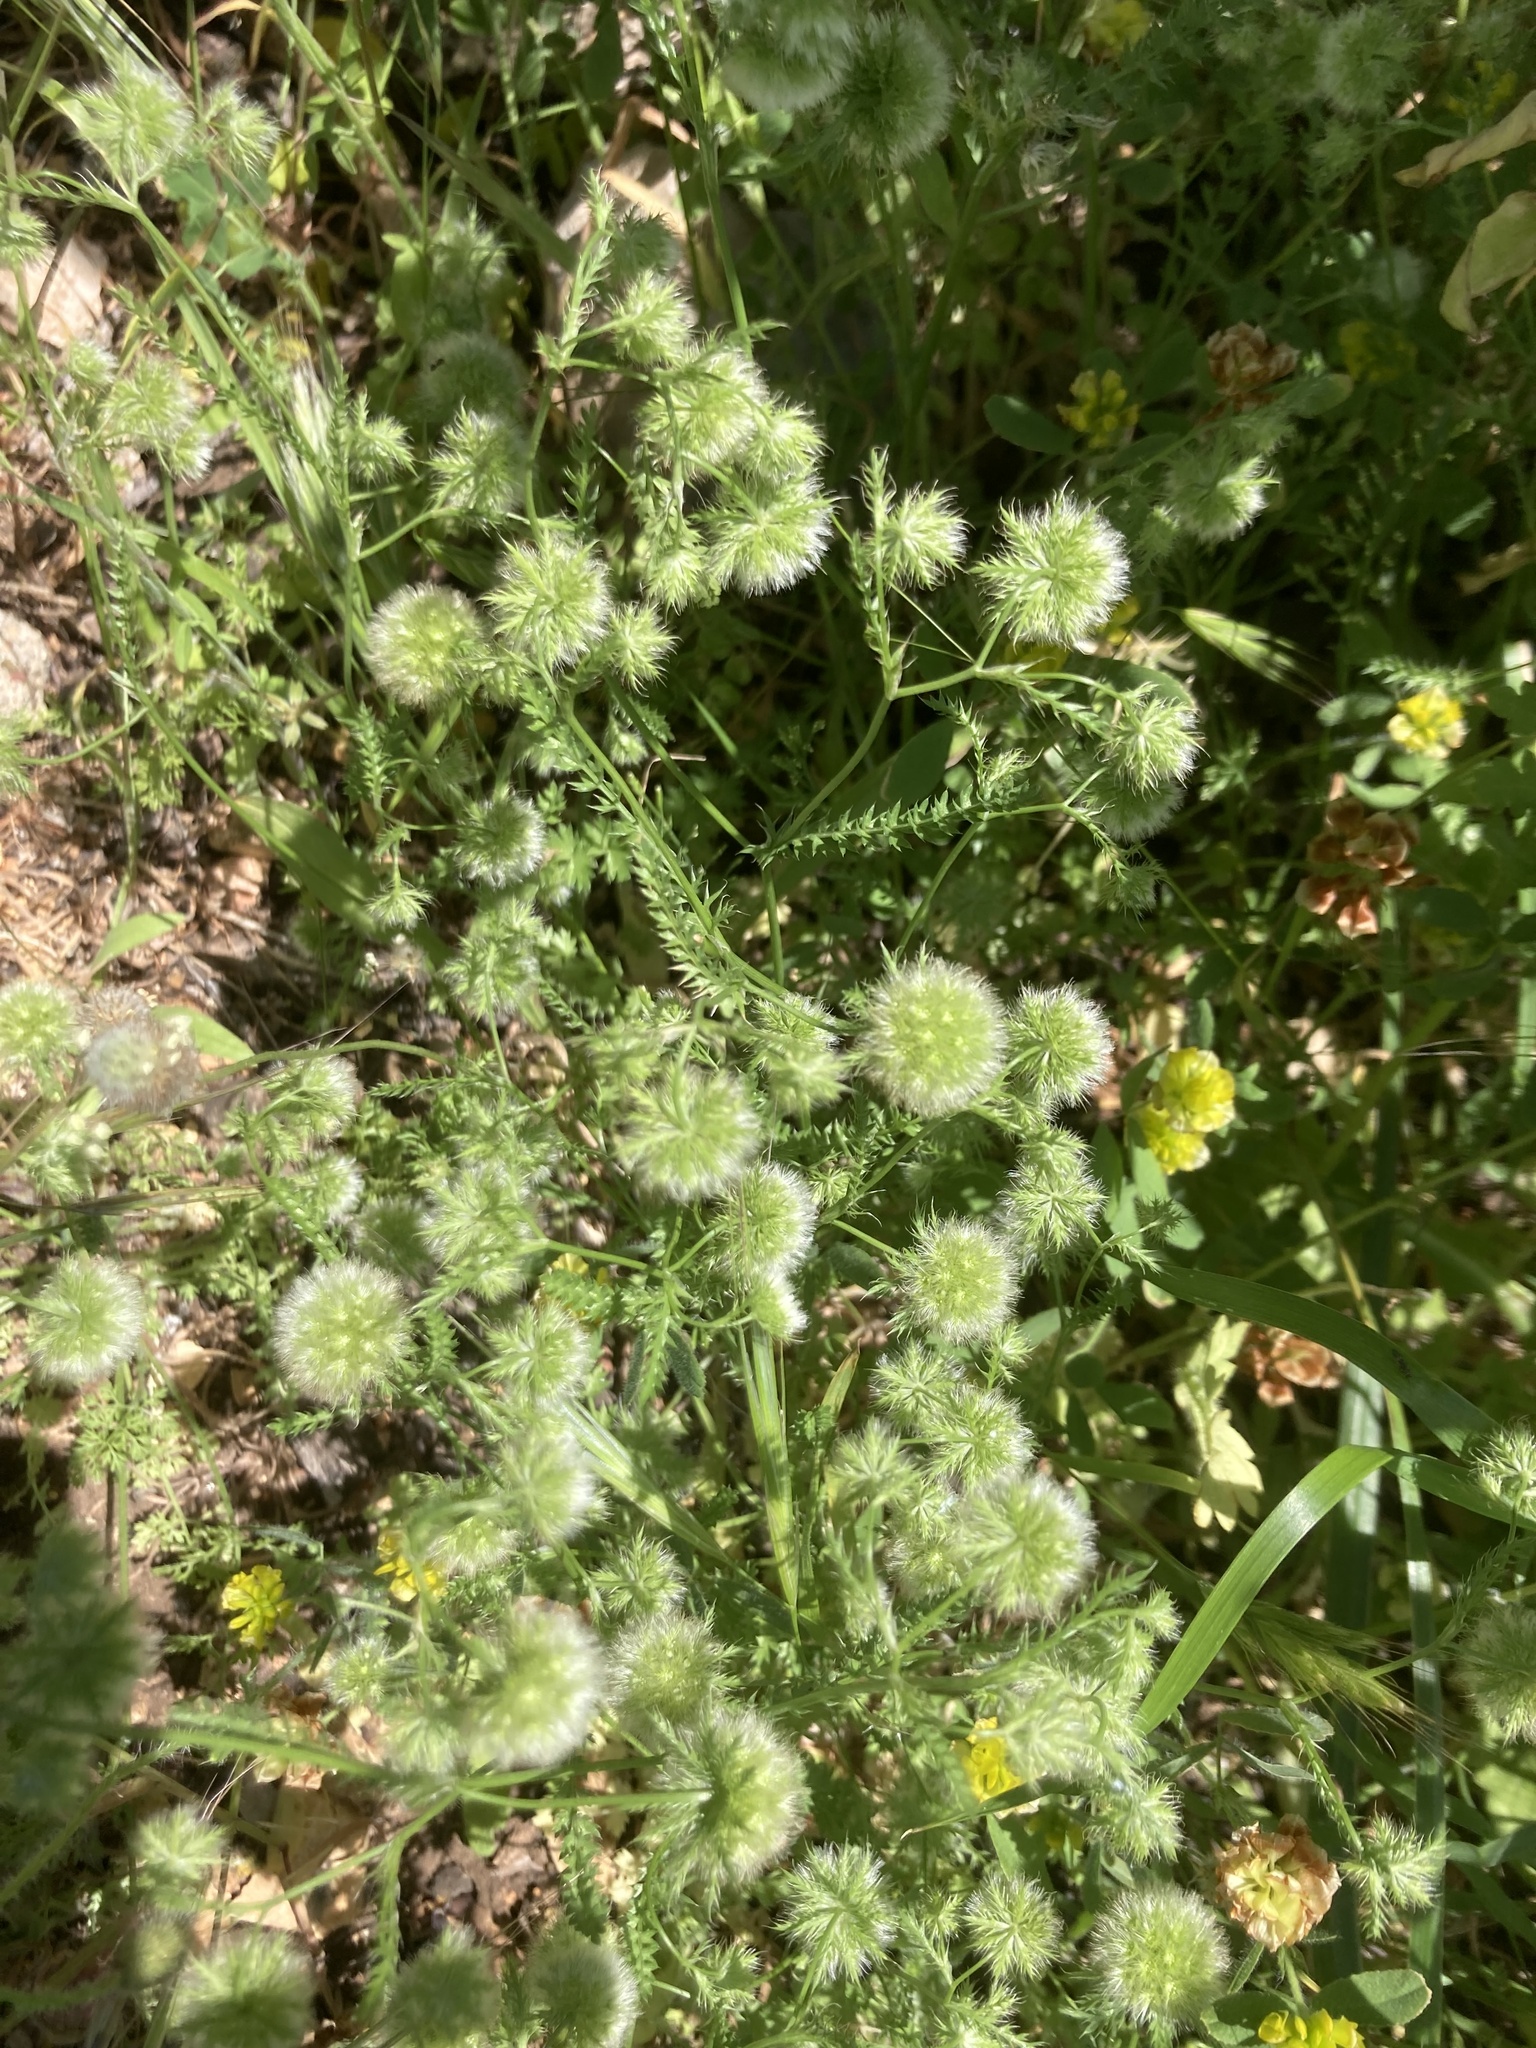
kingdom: Plantae
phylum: Tracheophyta
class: Magnoliopsida
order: Apiales
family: Apiaceae
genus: Lagoecia
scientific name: Lagoecia cuminoides
